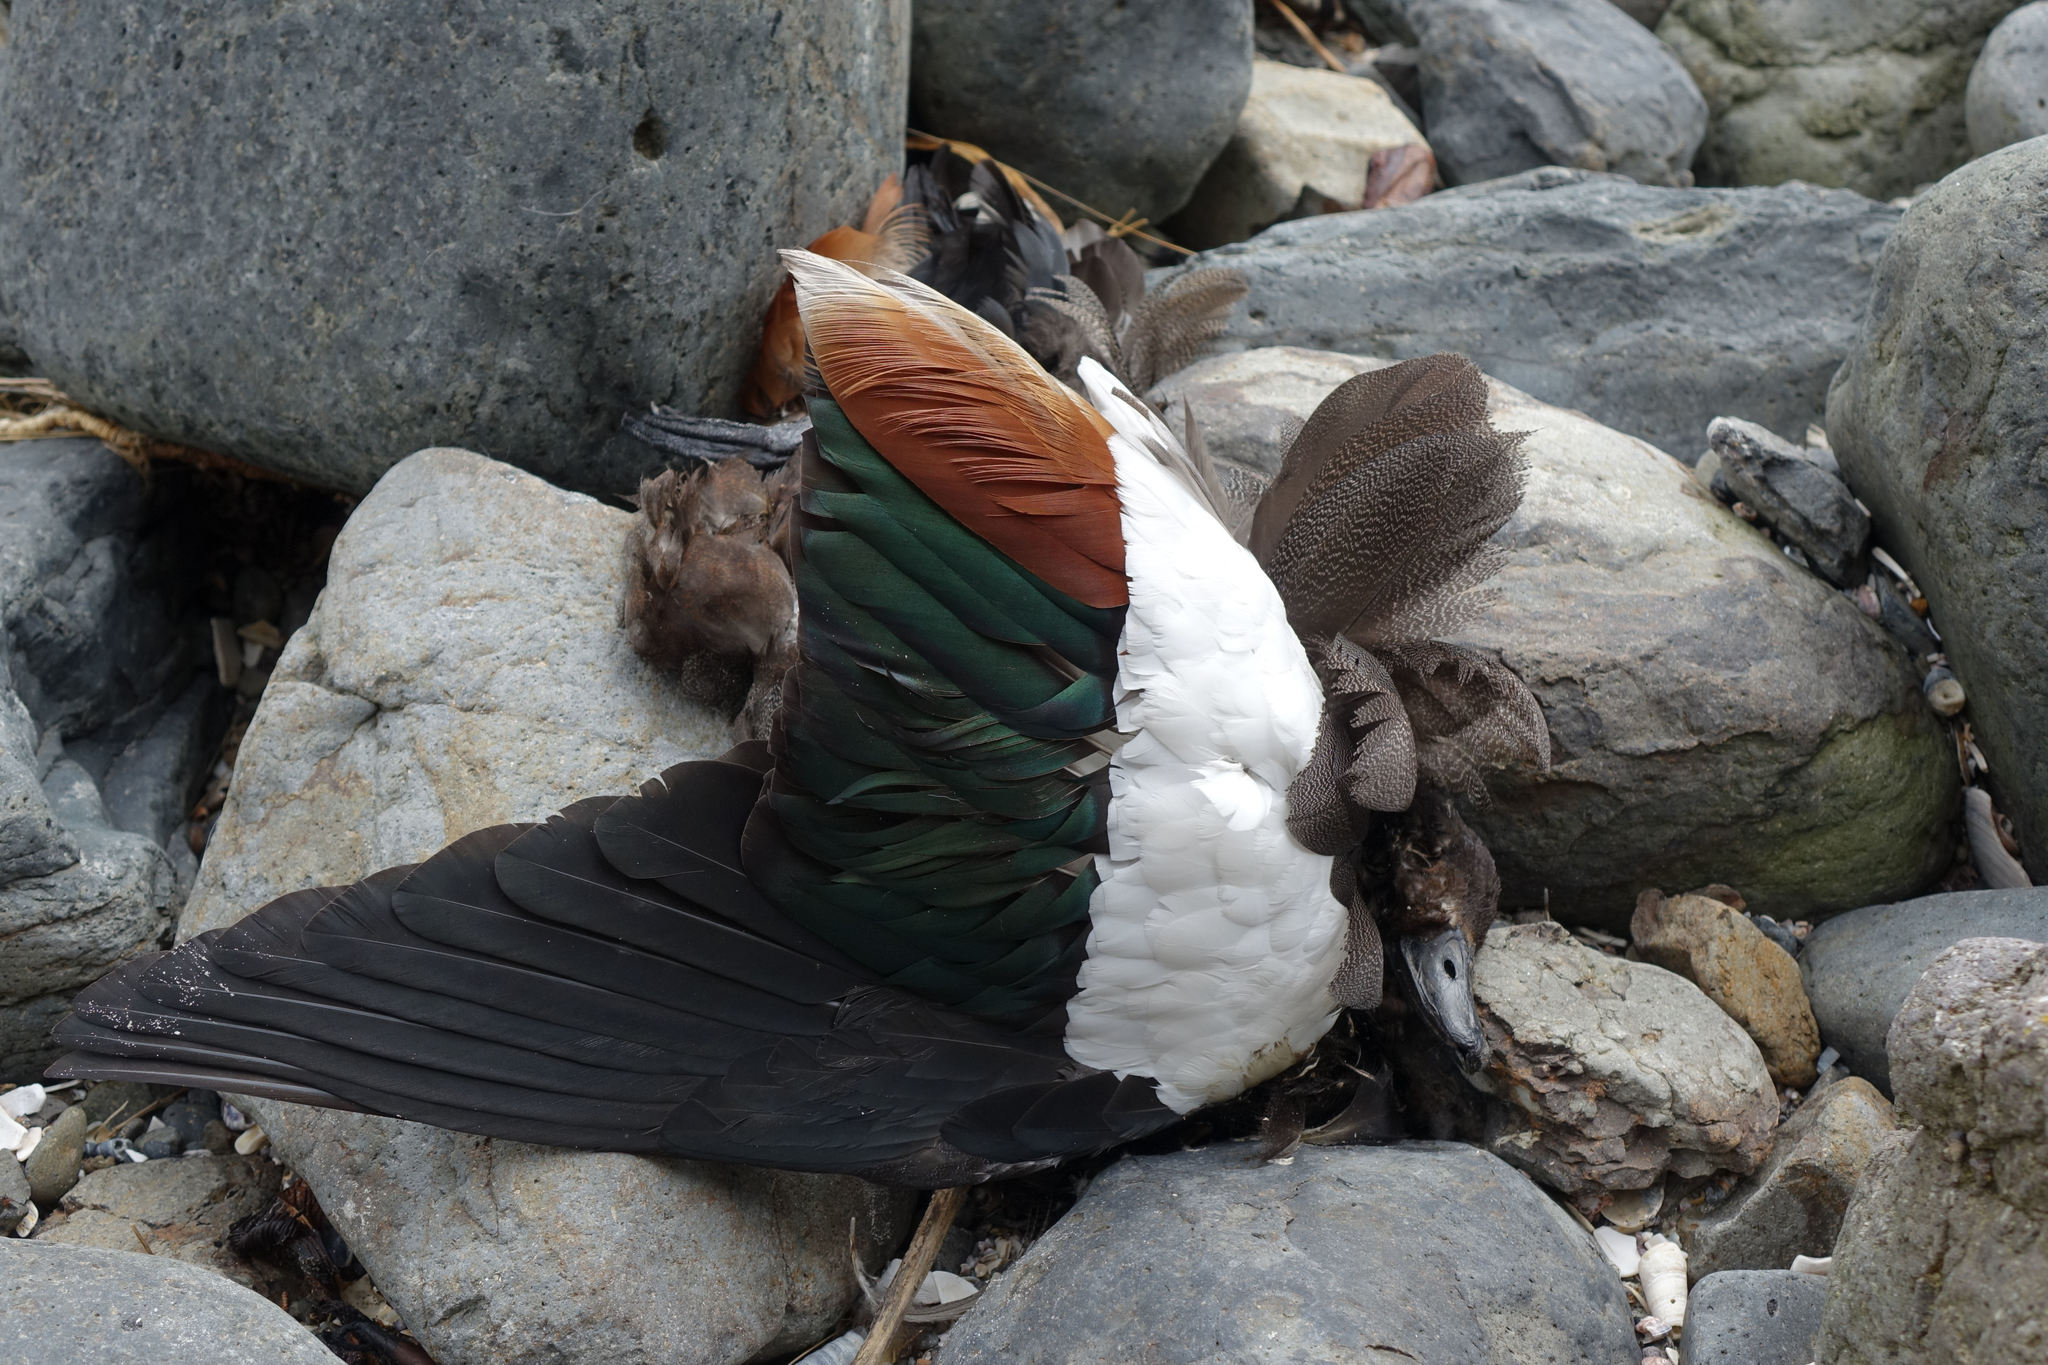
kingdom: Animalia
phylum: Chordata
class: Aves
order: Anseriformes
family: Anatidae
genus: Tadorna
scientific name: Tadorna variegata
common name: Paradise shelduck
